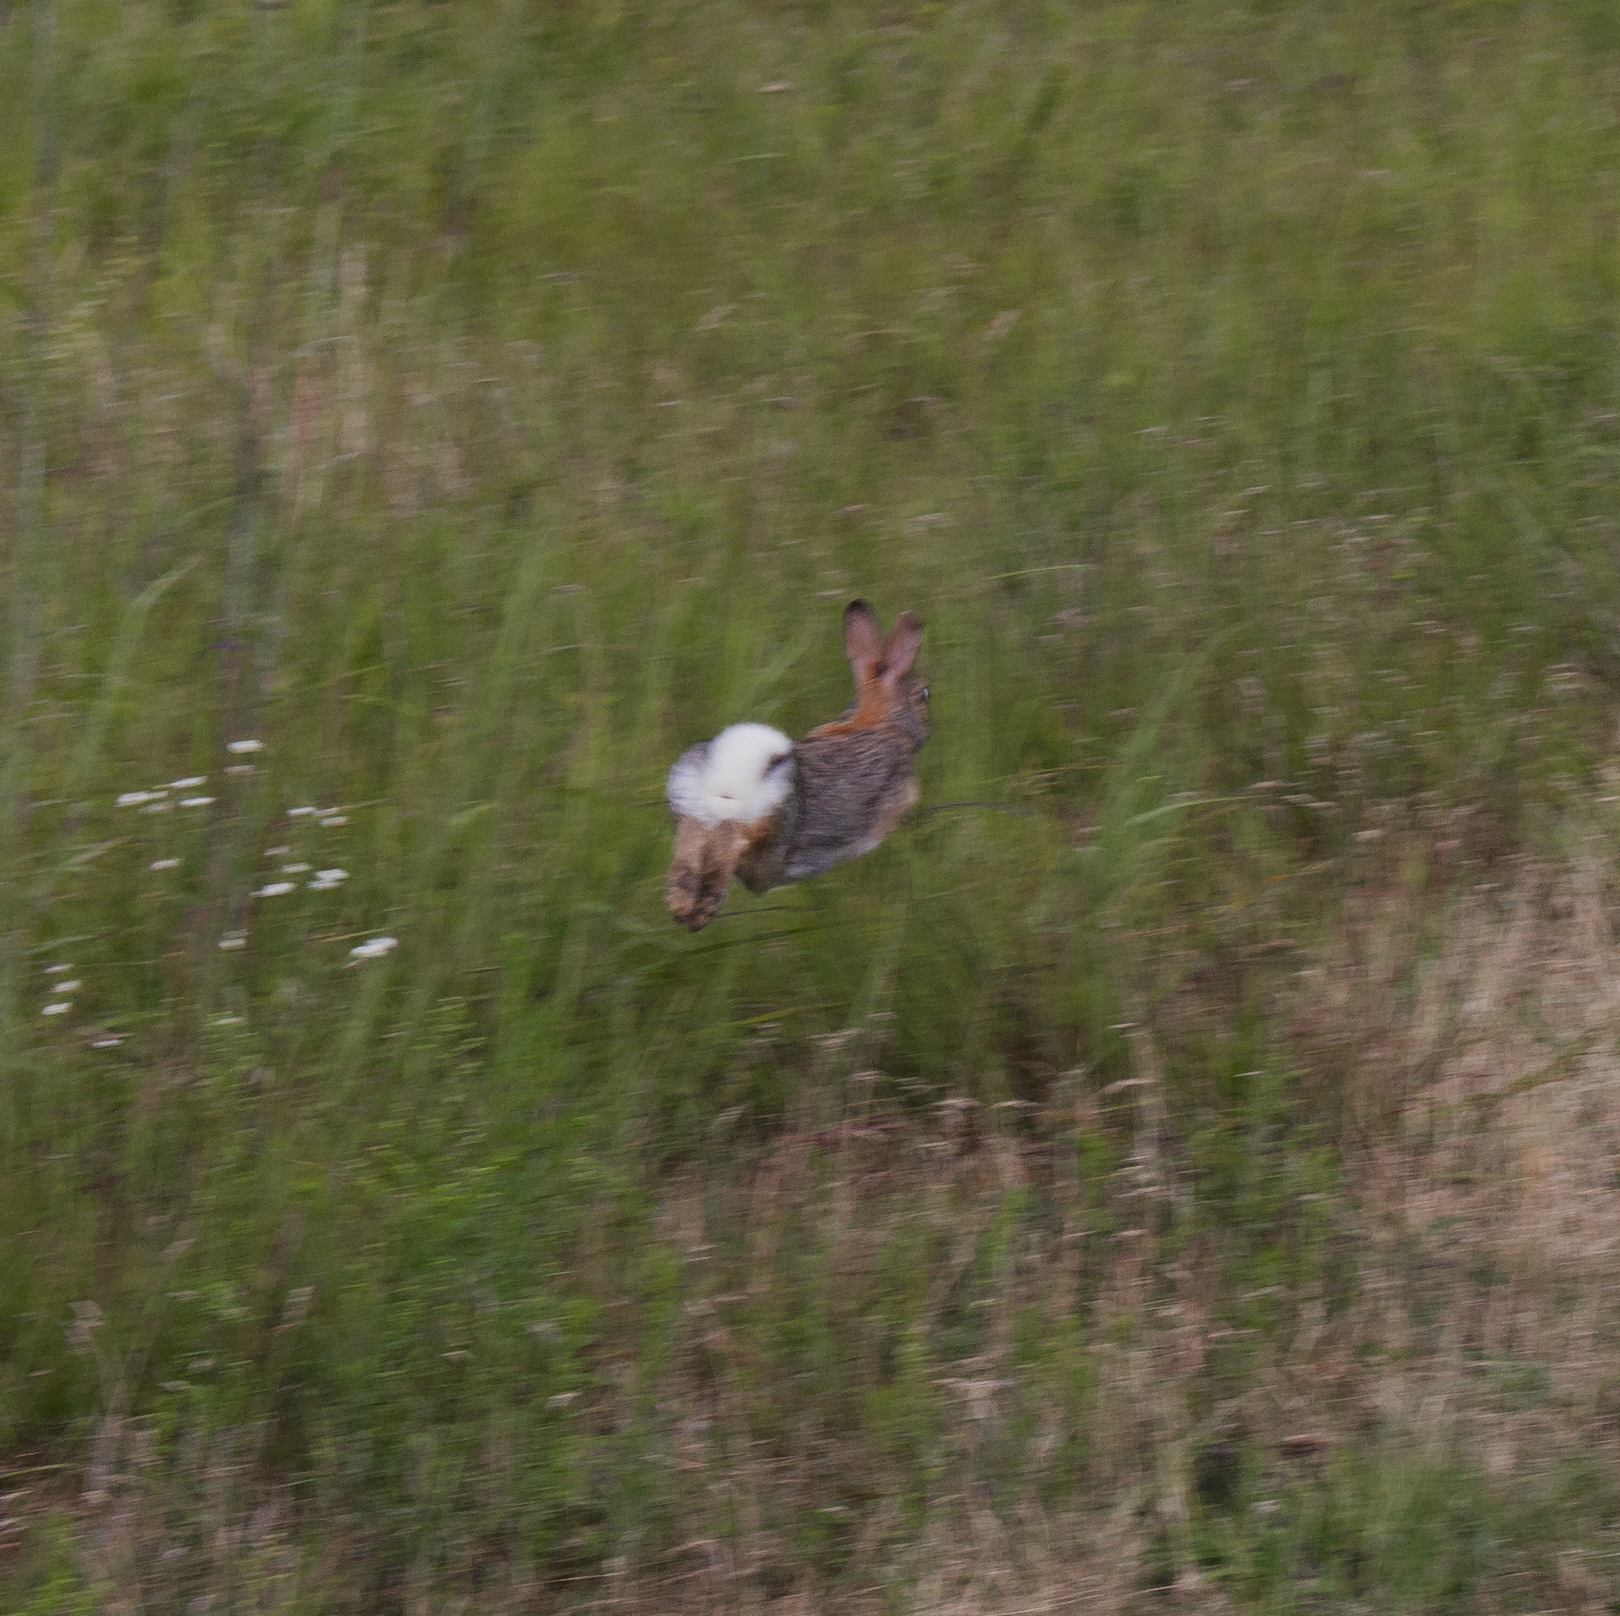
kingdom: Animalia
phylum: Chordata
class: Mammalia
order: Lagomorpha
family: Leporidae
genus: Sylvilagus
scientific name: Sylvilagus floridanus
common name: Eastern cottontail
